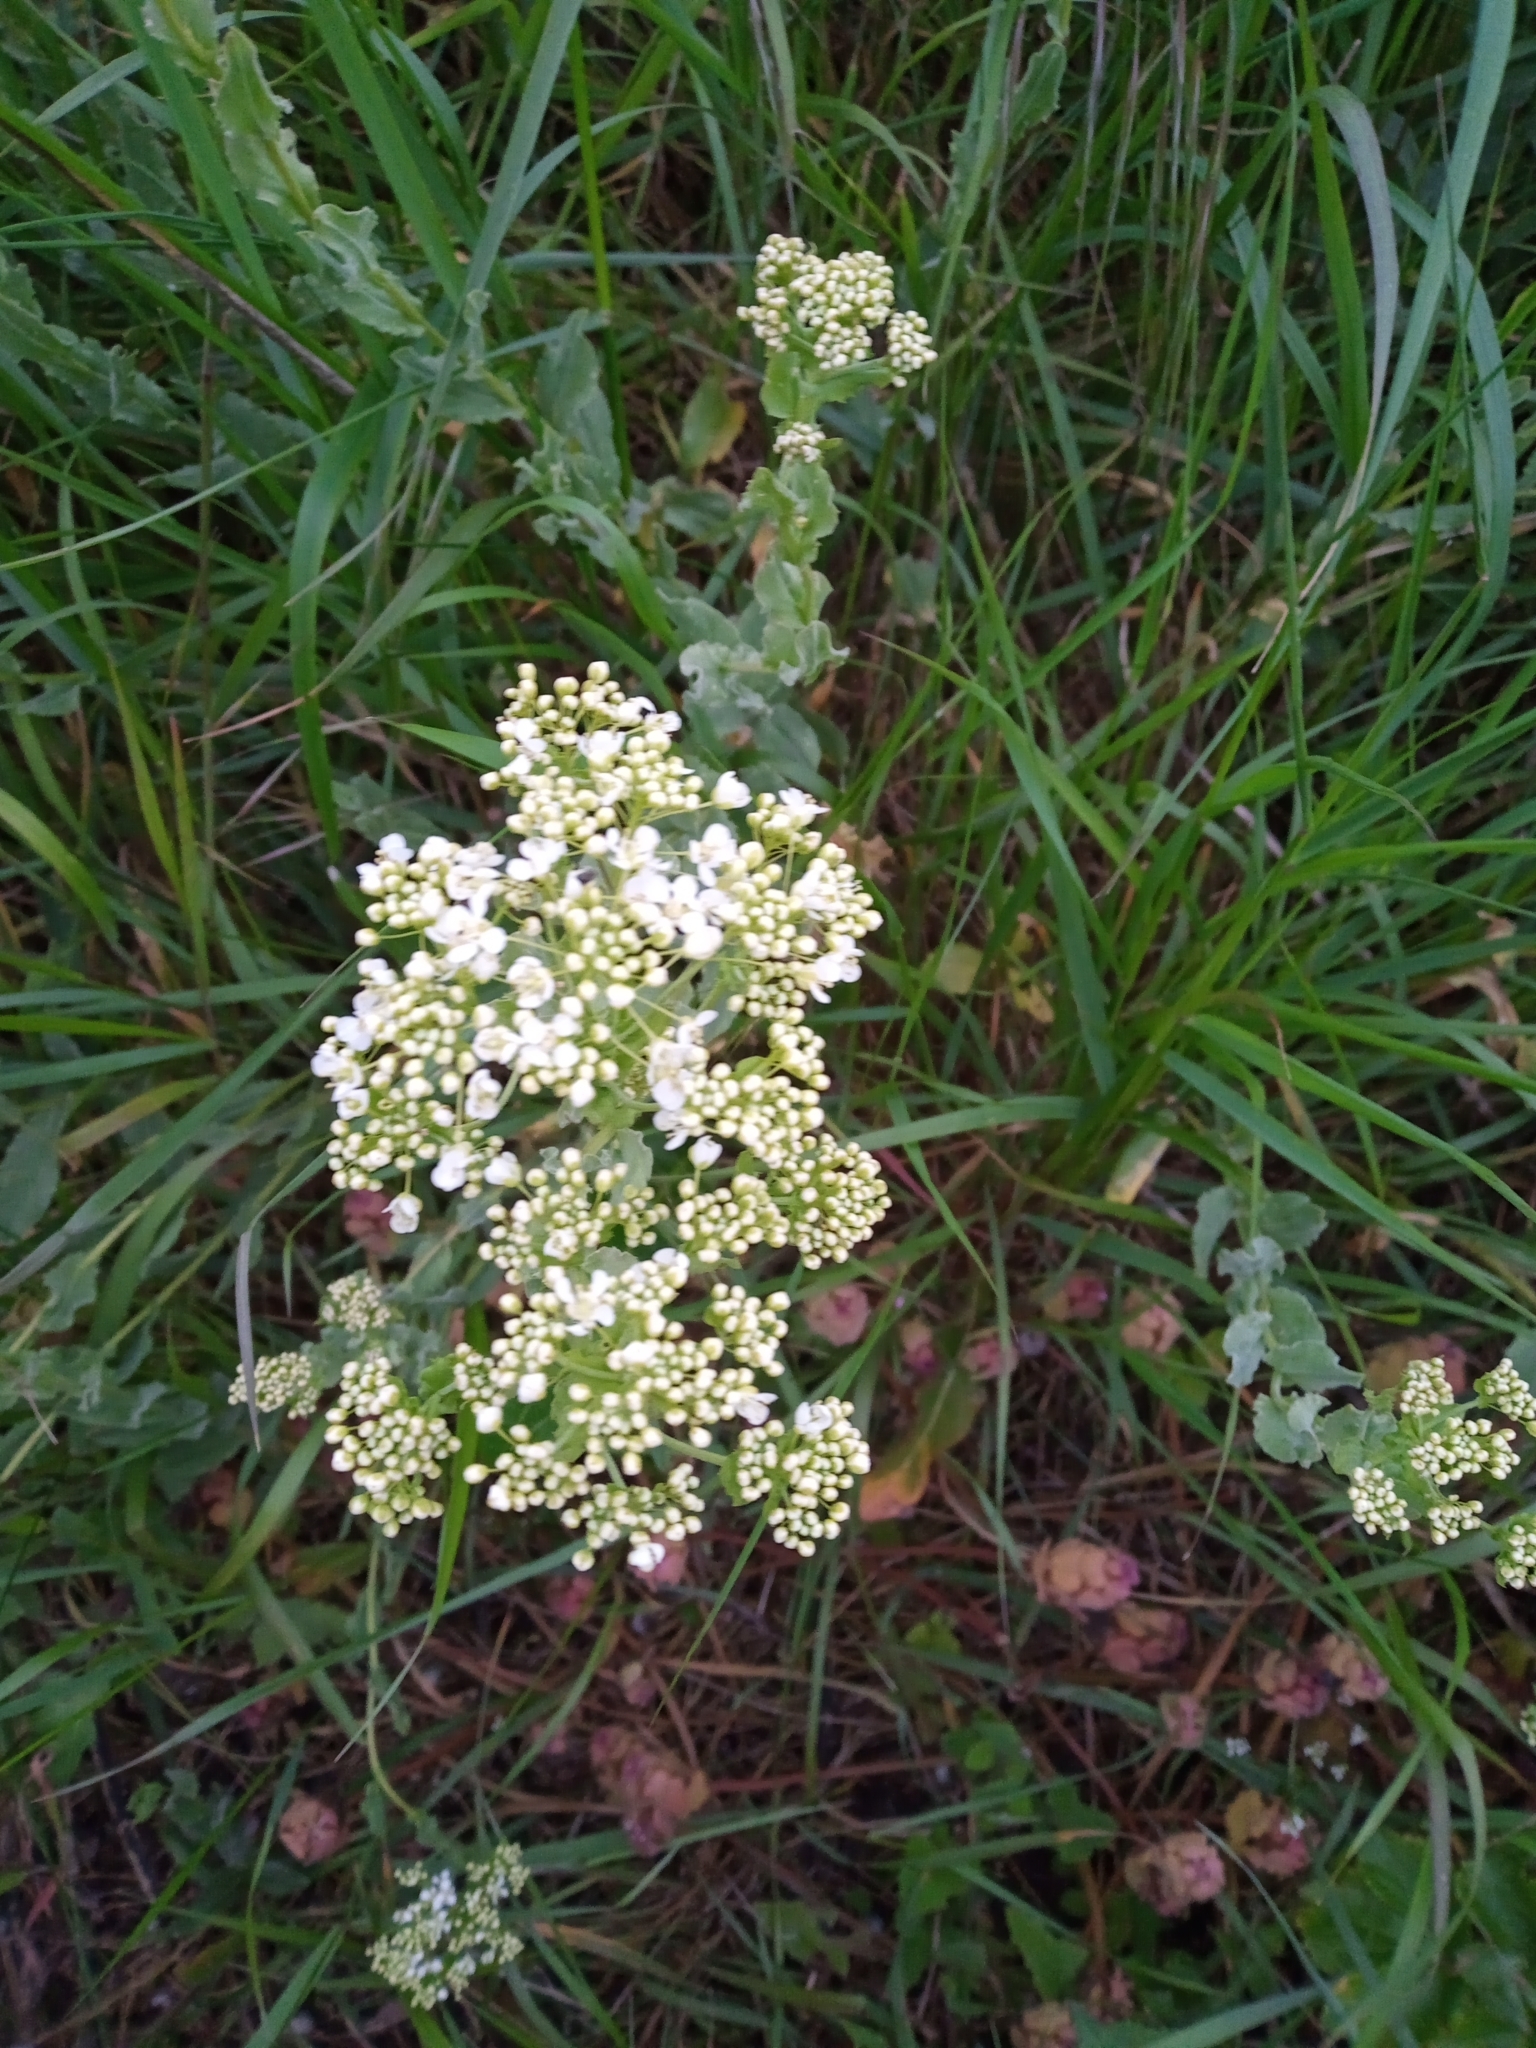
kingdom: Plantae
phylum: Tracheophyta
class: Magnoliopsida
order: Brassicales
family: Brassicaceae
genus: Lepidium
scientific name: Lepidium draba
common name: Hoary cress
